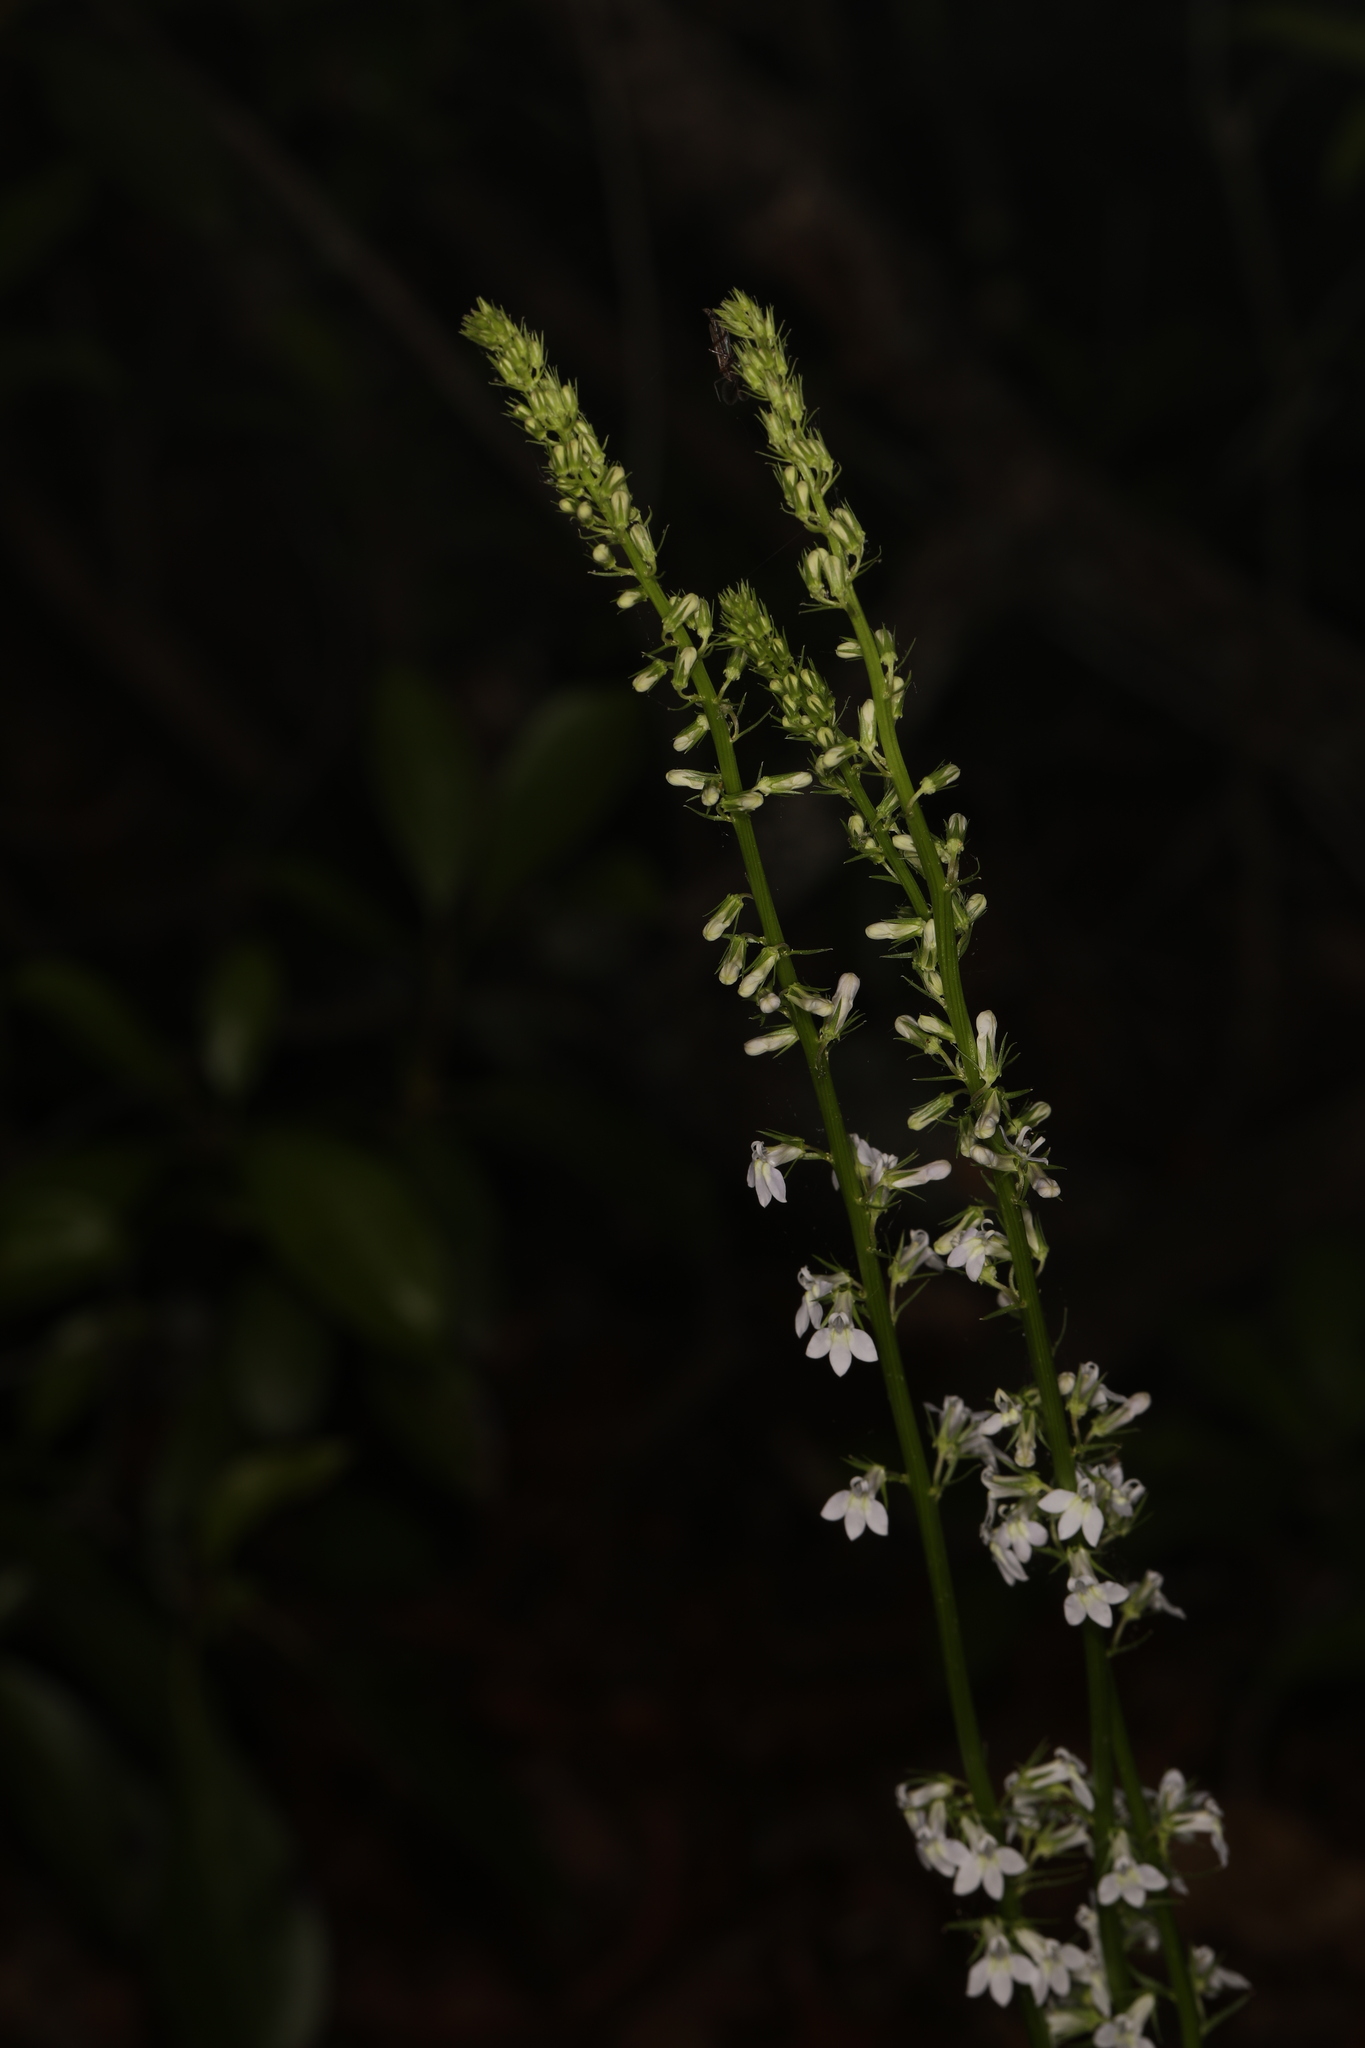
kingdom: Plantae
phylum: Tracheophyta
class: Magnoliopsida
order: Asterales
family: Campanulaceae
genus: Lobelia
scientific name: Lobelia spicata
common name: Pale-spike lobelia
